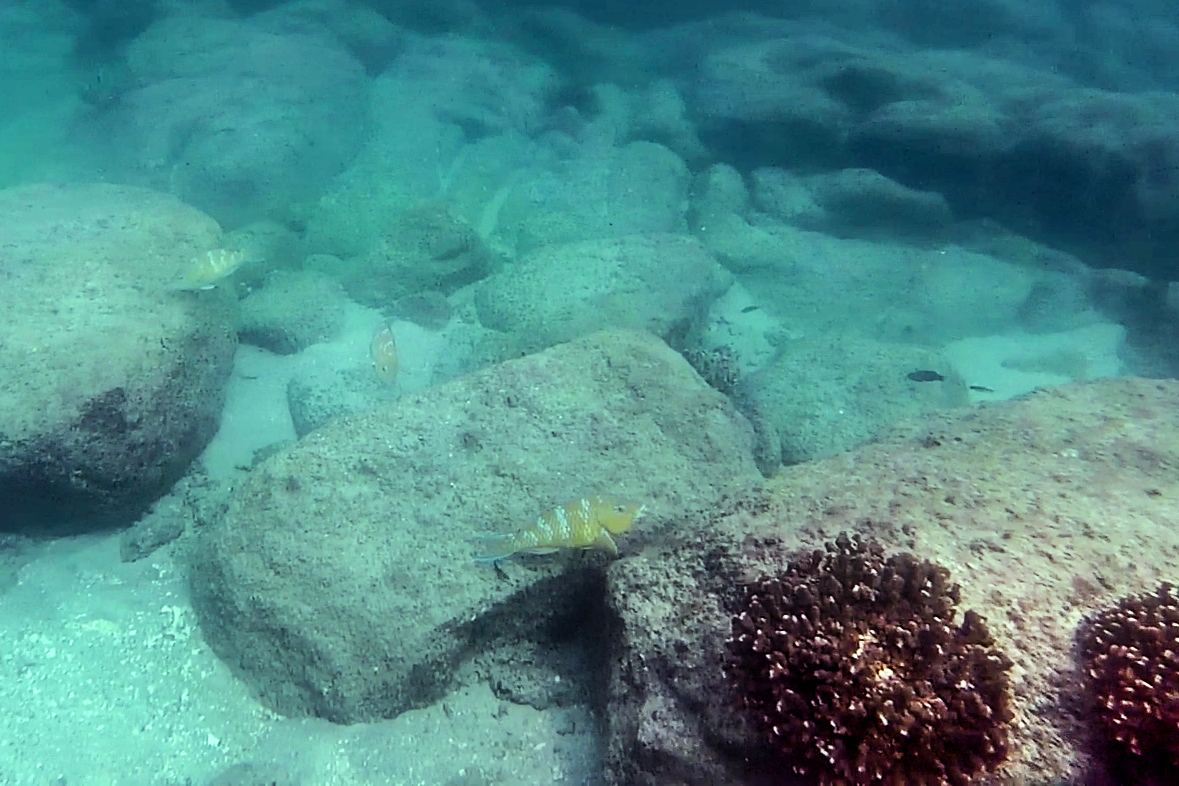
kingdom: Animalia
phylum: Chordata
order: Perciformes
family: Scaridae
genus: Scarus
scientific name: Scarus ghobban
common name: Blue-barred parrotfish
